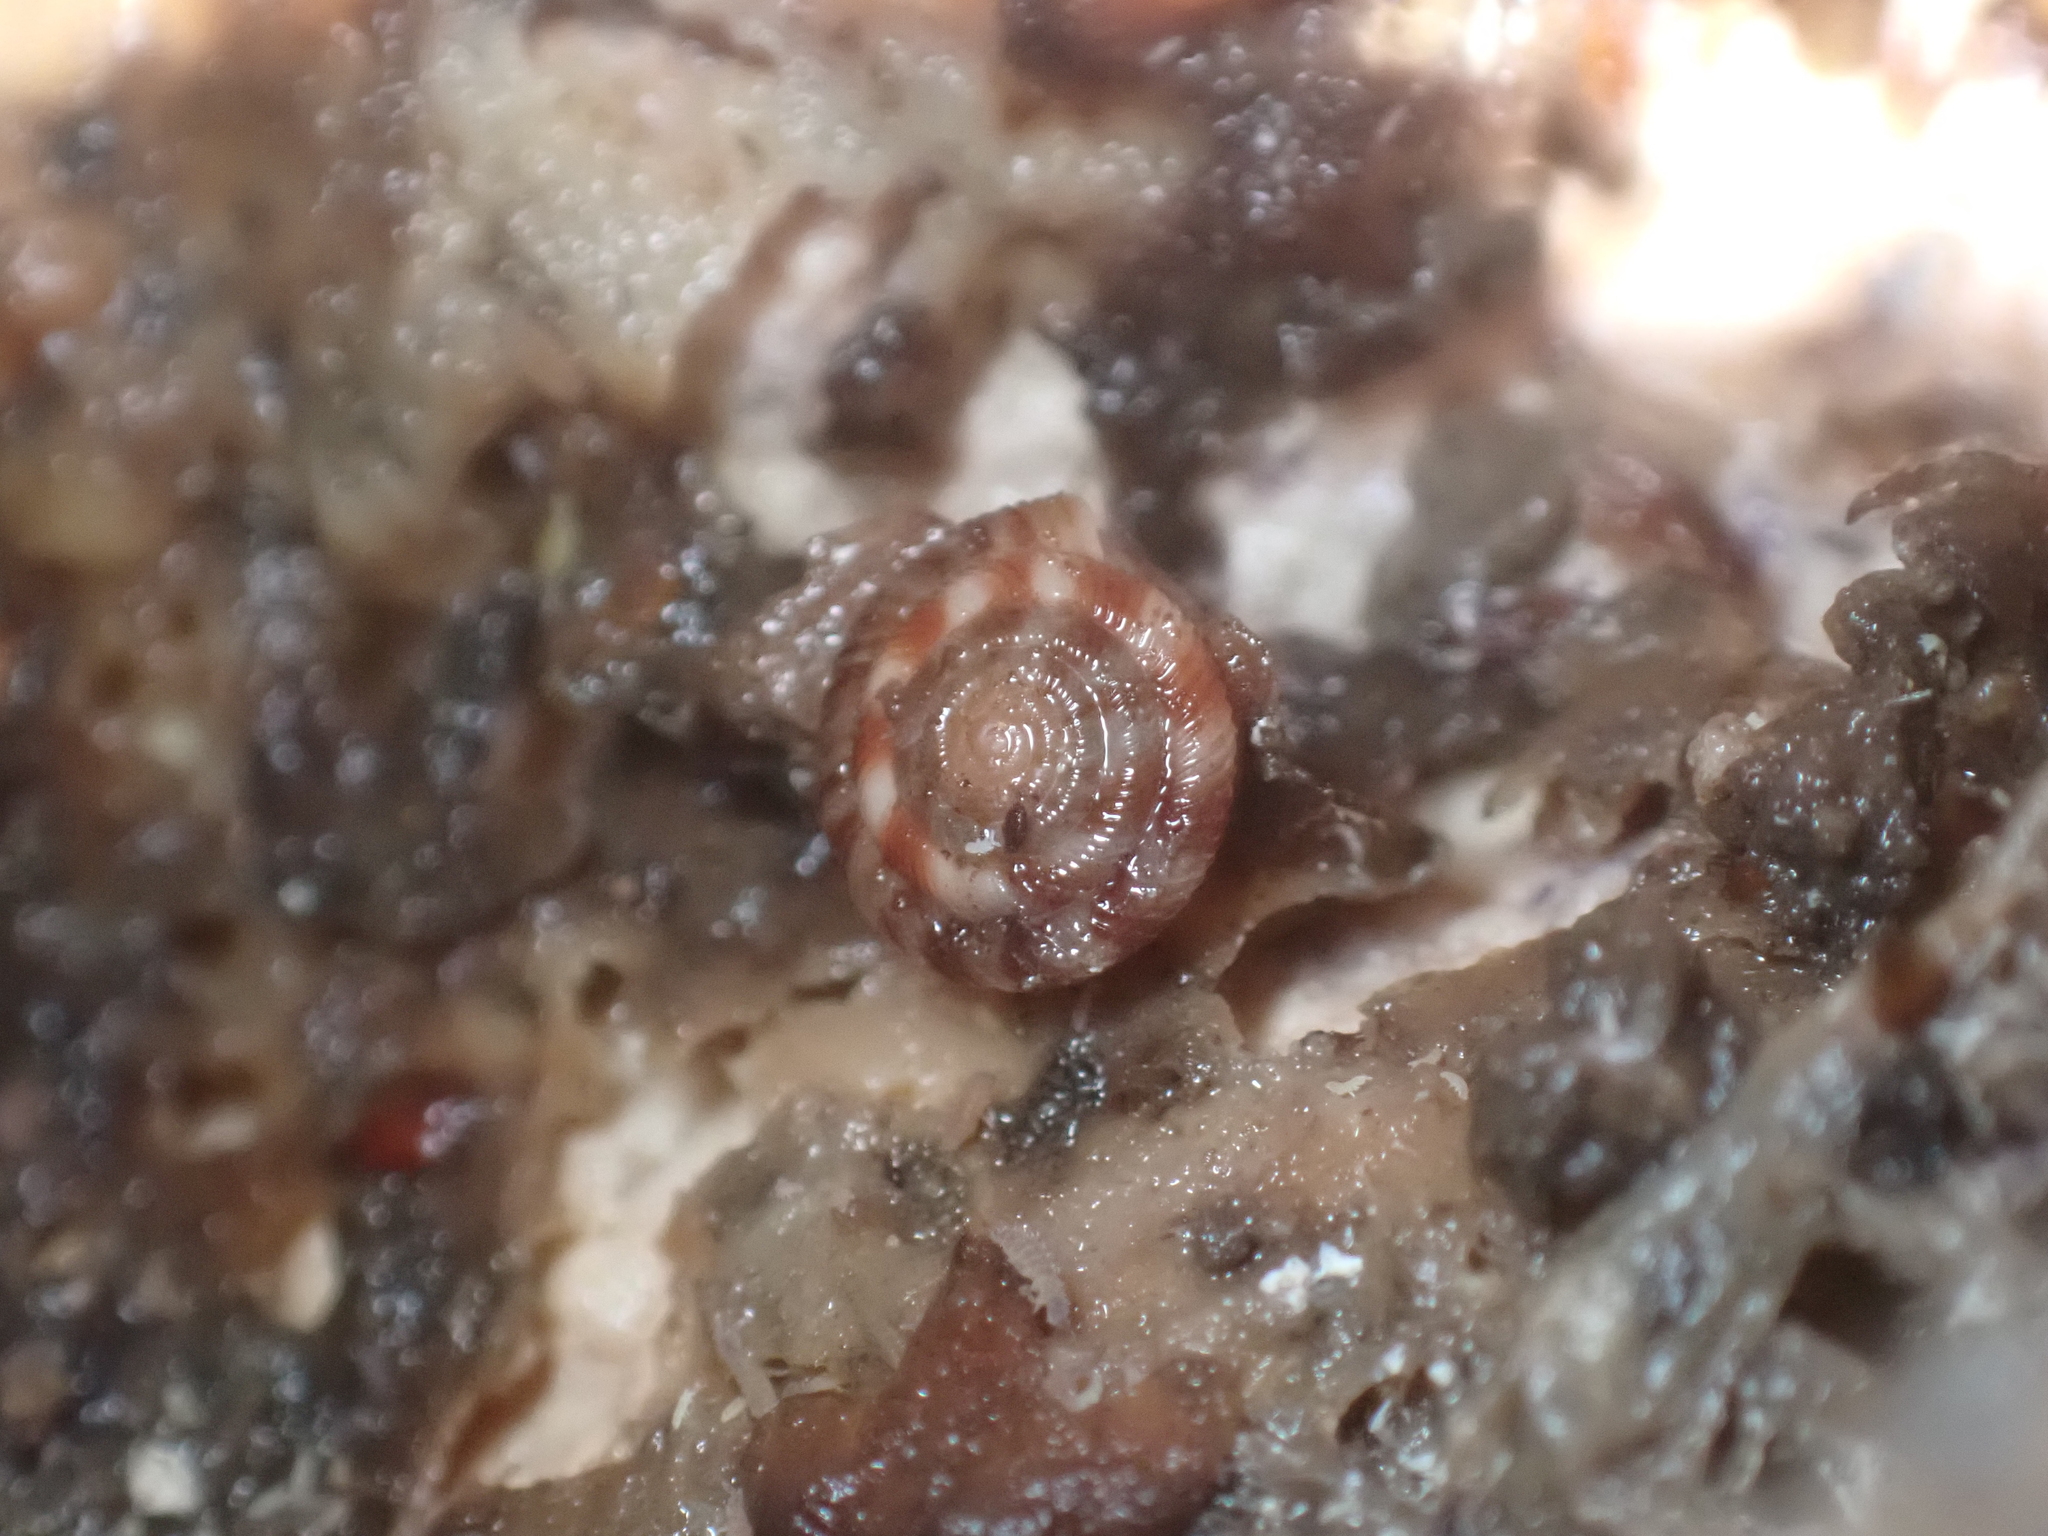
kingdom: Animalia
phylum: Mollusca
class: Gastropoda
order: Stylommatophora
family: Discidae
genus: Discus
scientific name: Discus rotundatus
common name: Rounded snail
